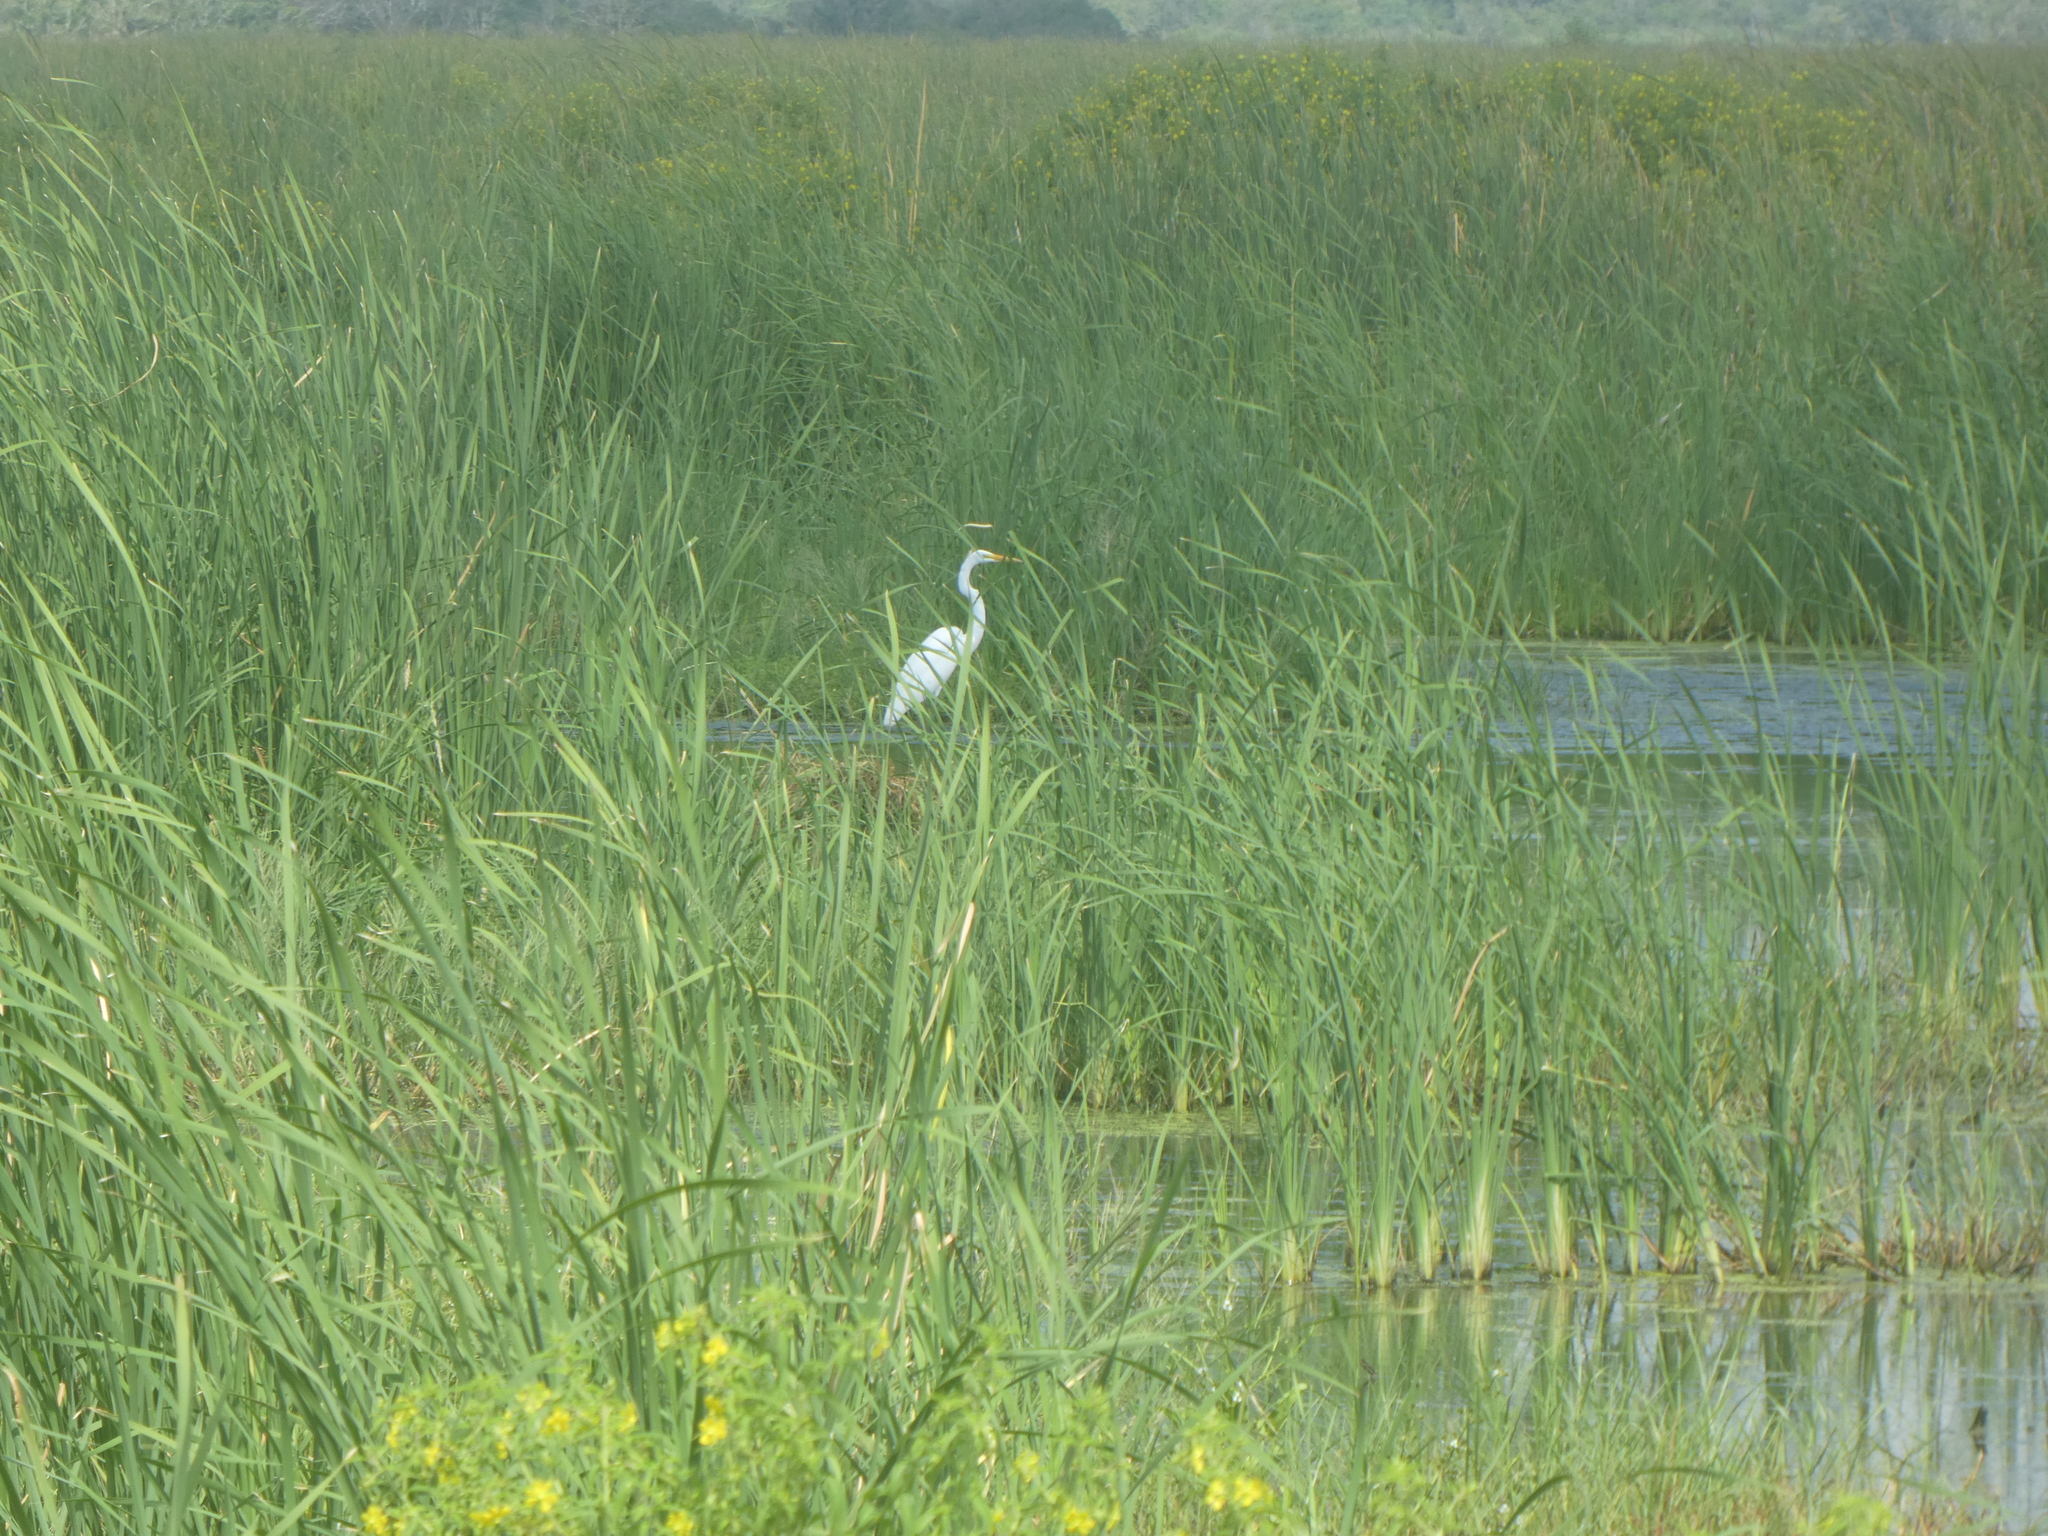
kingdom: Animalia
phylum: Chordata
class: Aves
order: Pelecaniformes
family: Ardeidae
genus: Ardea
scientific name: Ardea alba
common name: Great egret
